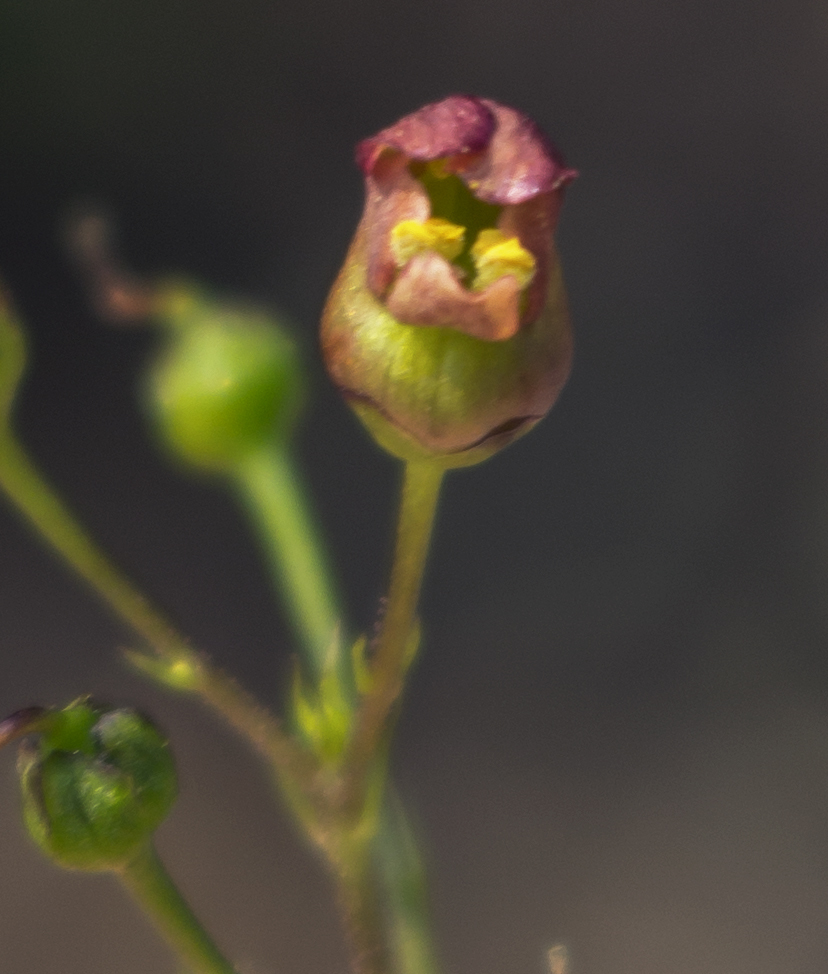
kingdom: Plantae
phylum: Tracheophyta
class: Magnoliopsida
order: Lamiales
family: Scrophulariaceae
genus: Scrophularia
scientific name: Scrophularia marilandica
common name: Eastern figwort
